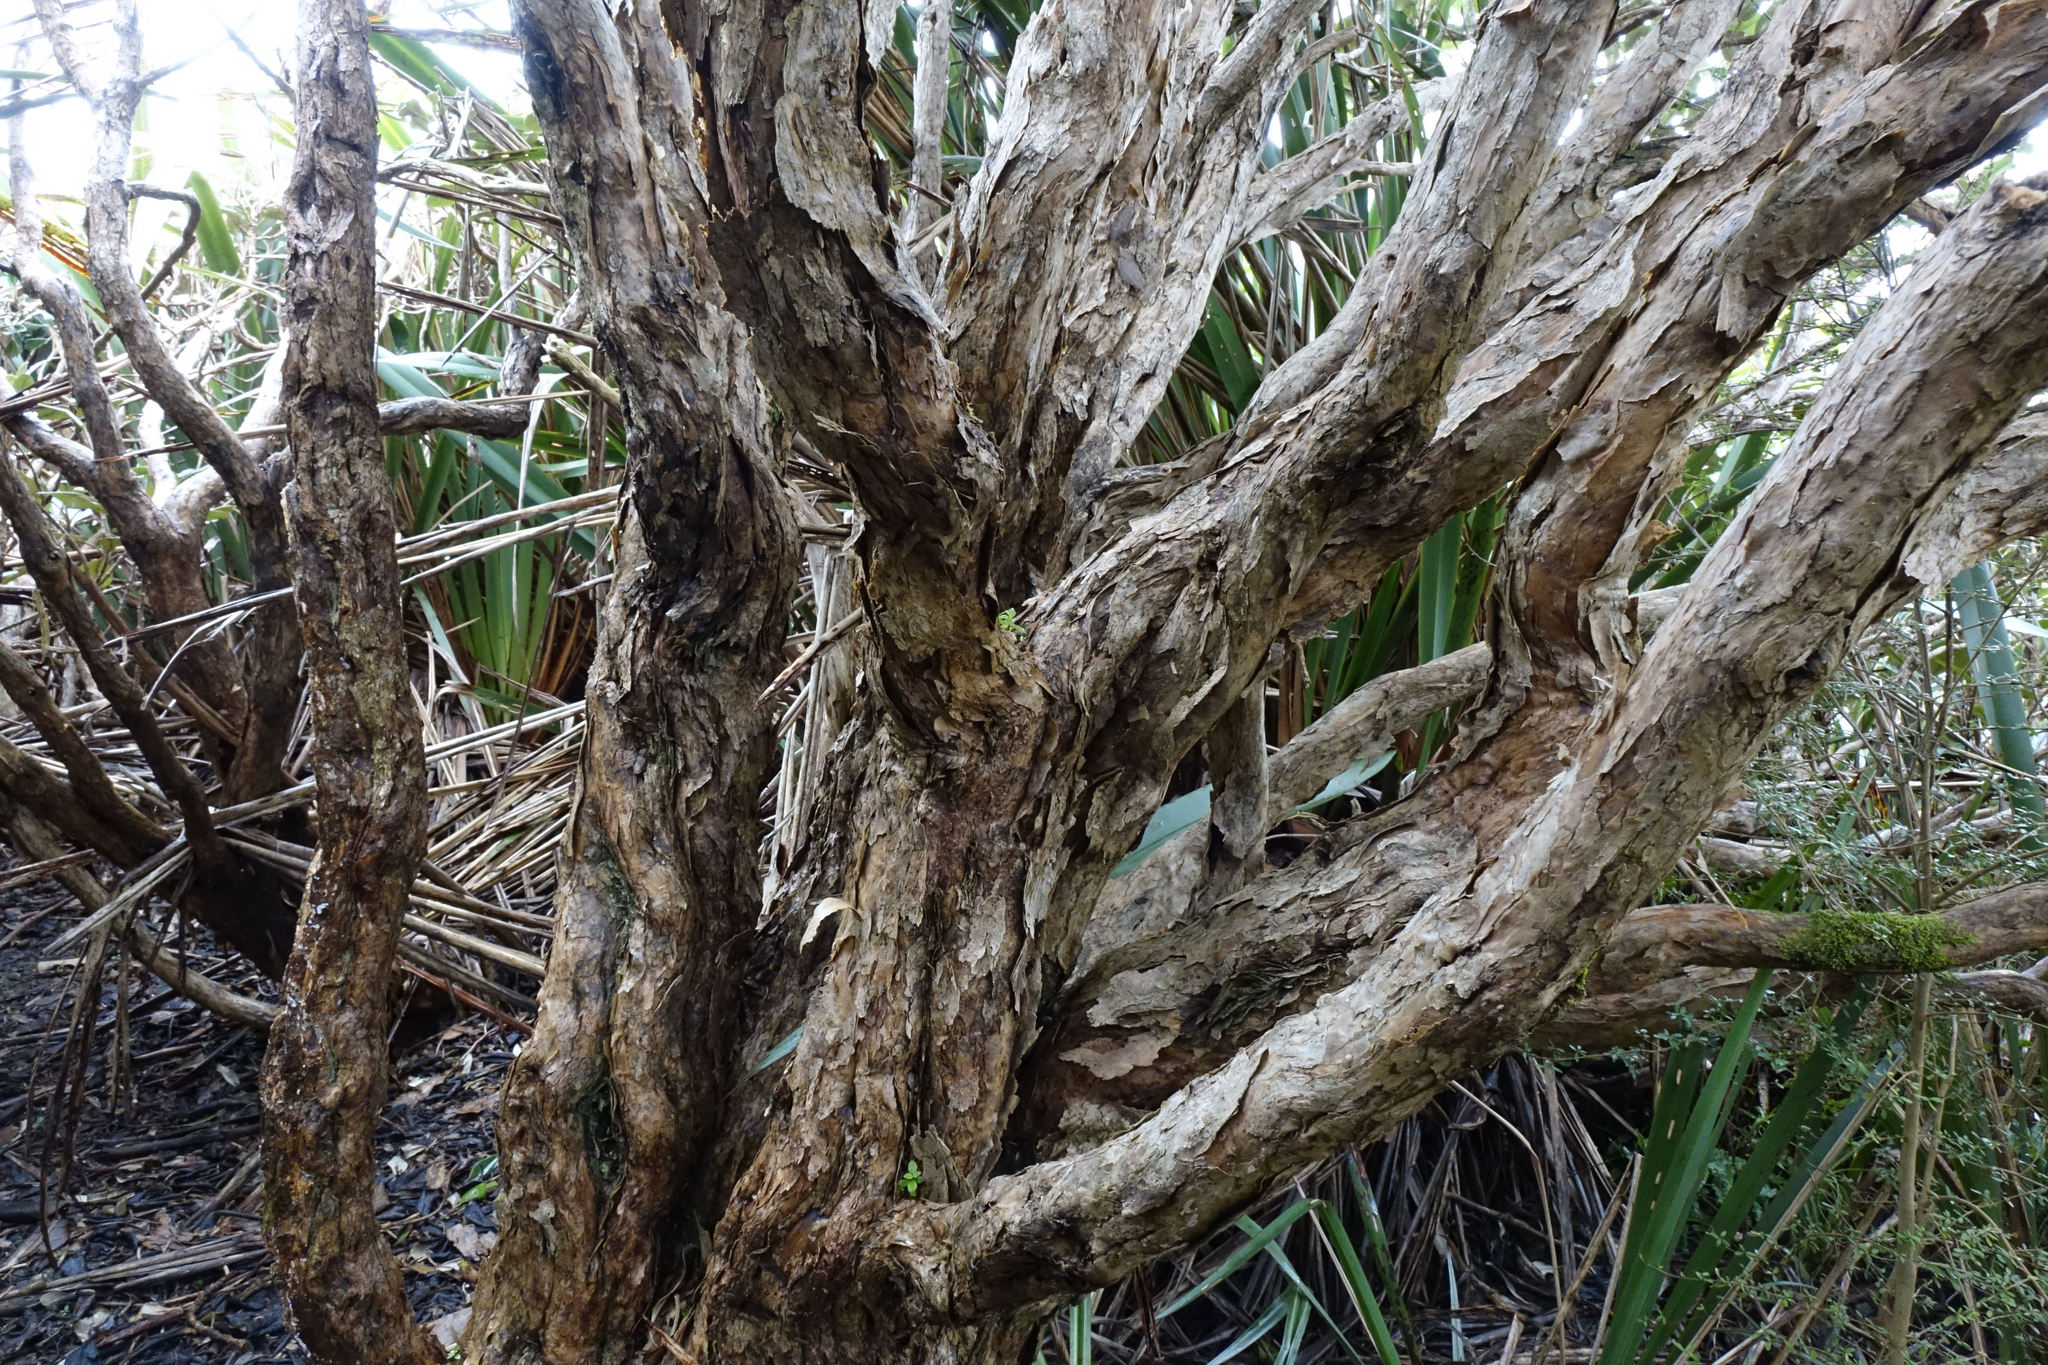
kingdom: Plantae
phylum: Tracheophyta
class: Magnoliopsida
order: Asterales
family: Asteraceae
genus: Brachyglottis
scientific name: Brachyglottis buchananii
